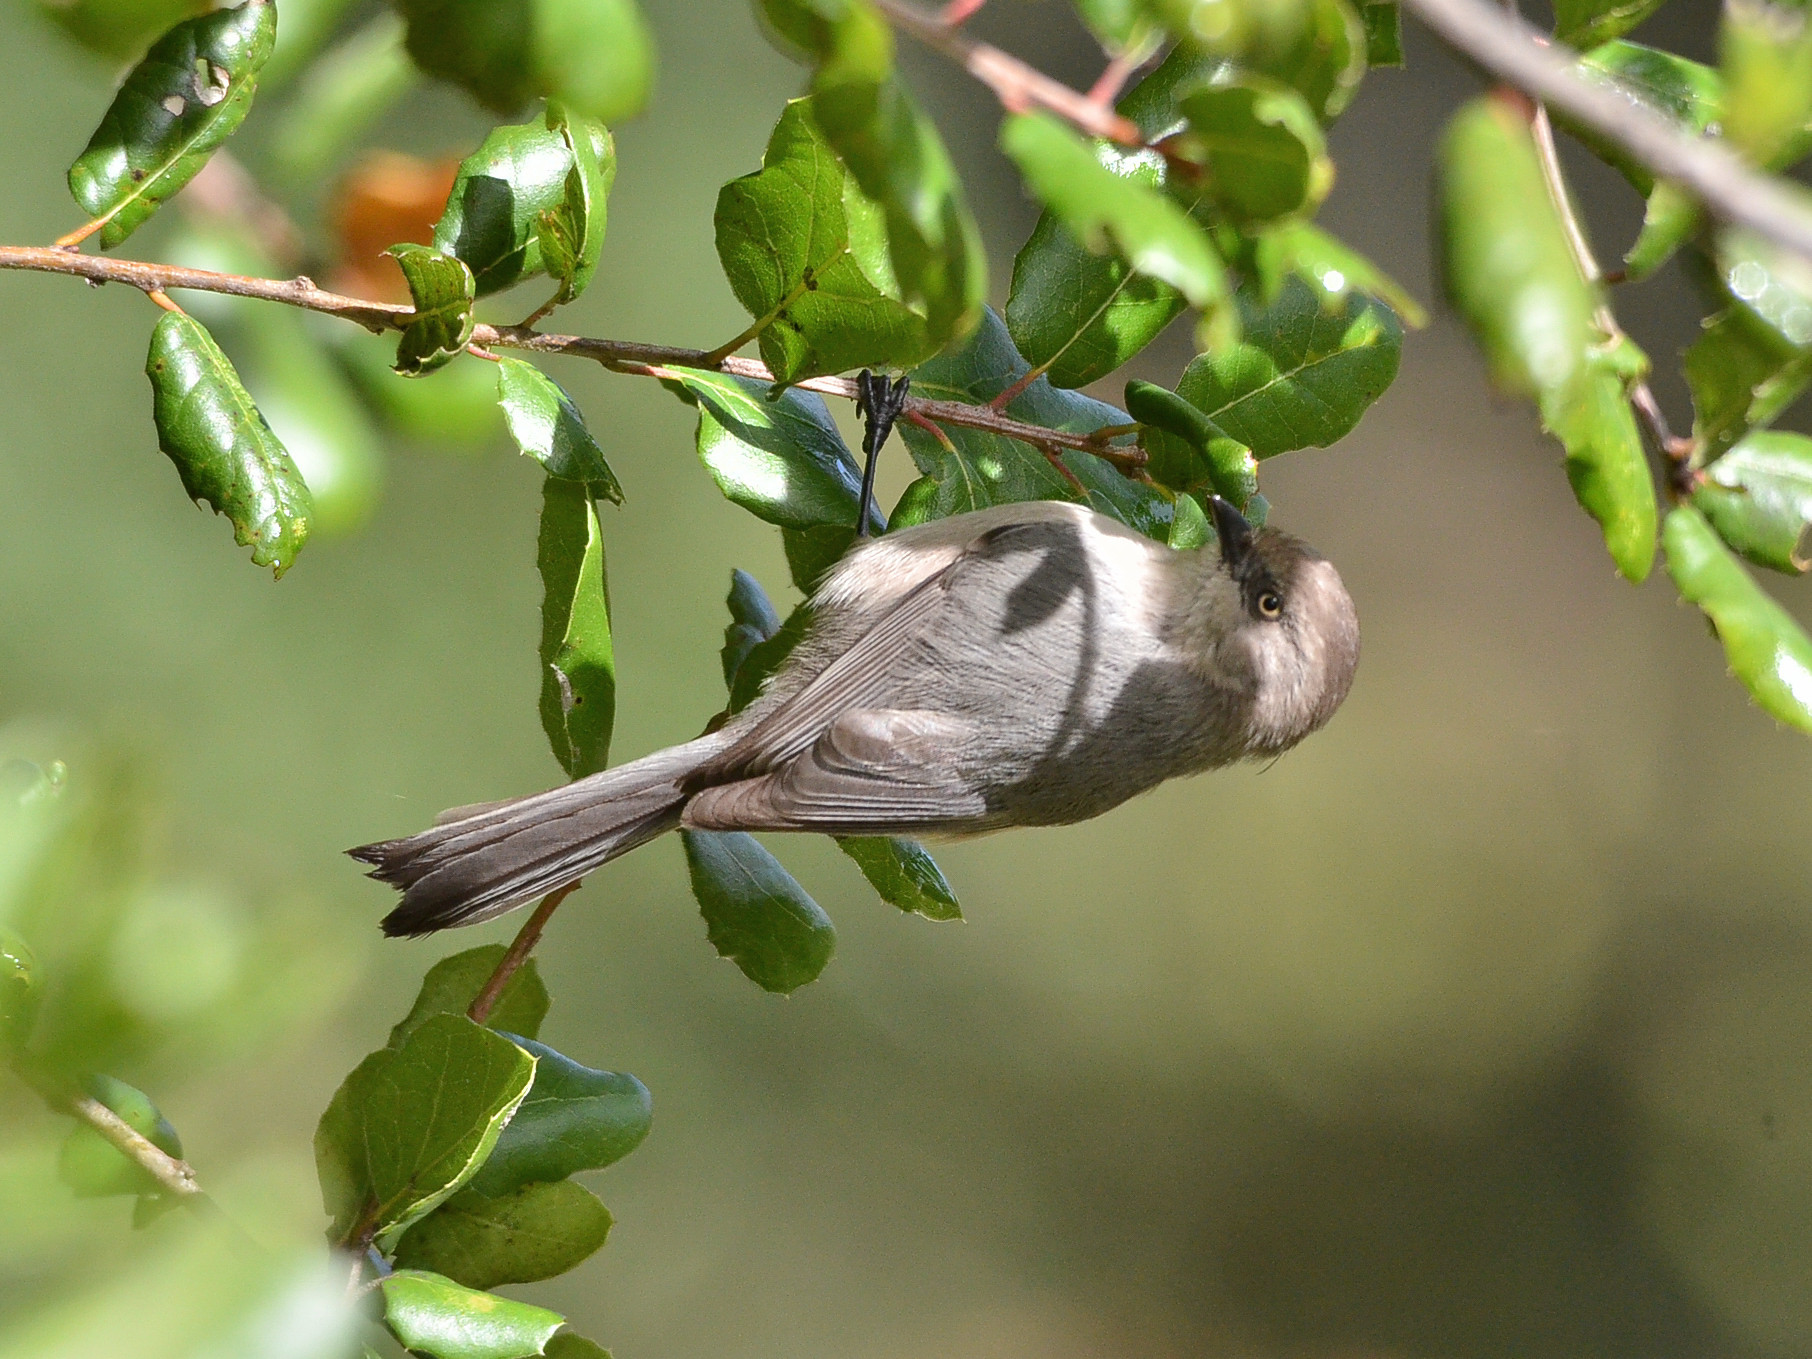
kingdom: Animalia
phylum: Chordata
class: Aves
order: Passeriformes
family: Aegithalidae
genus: Psaltriparus
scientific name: Psaltriparus minimus
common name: American bushtit
